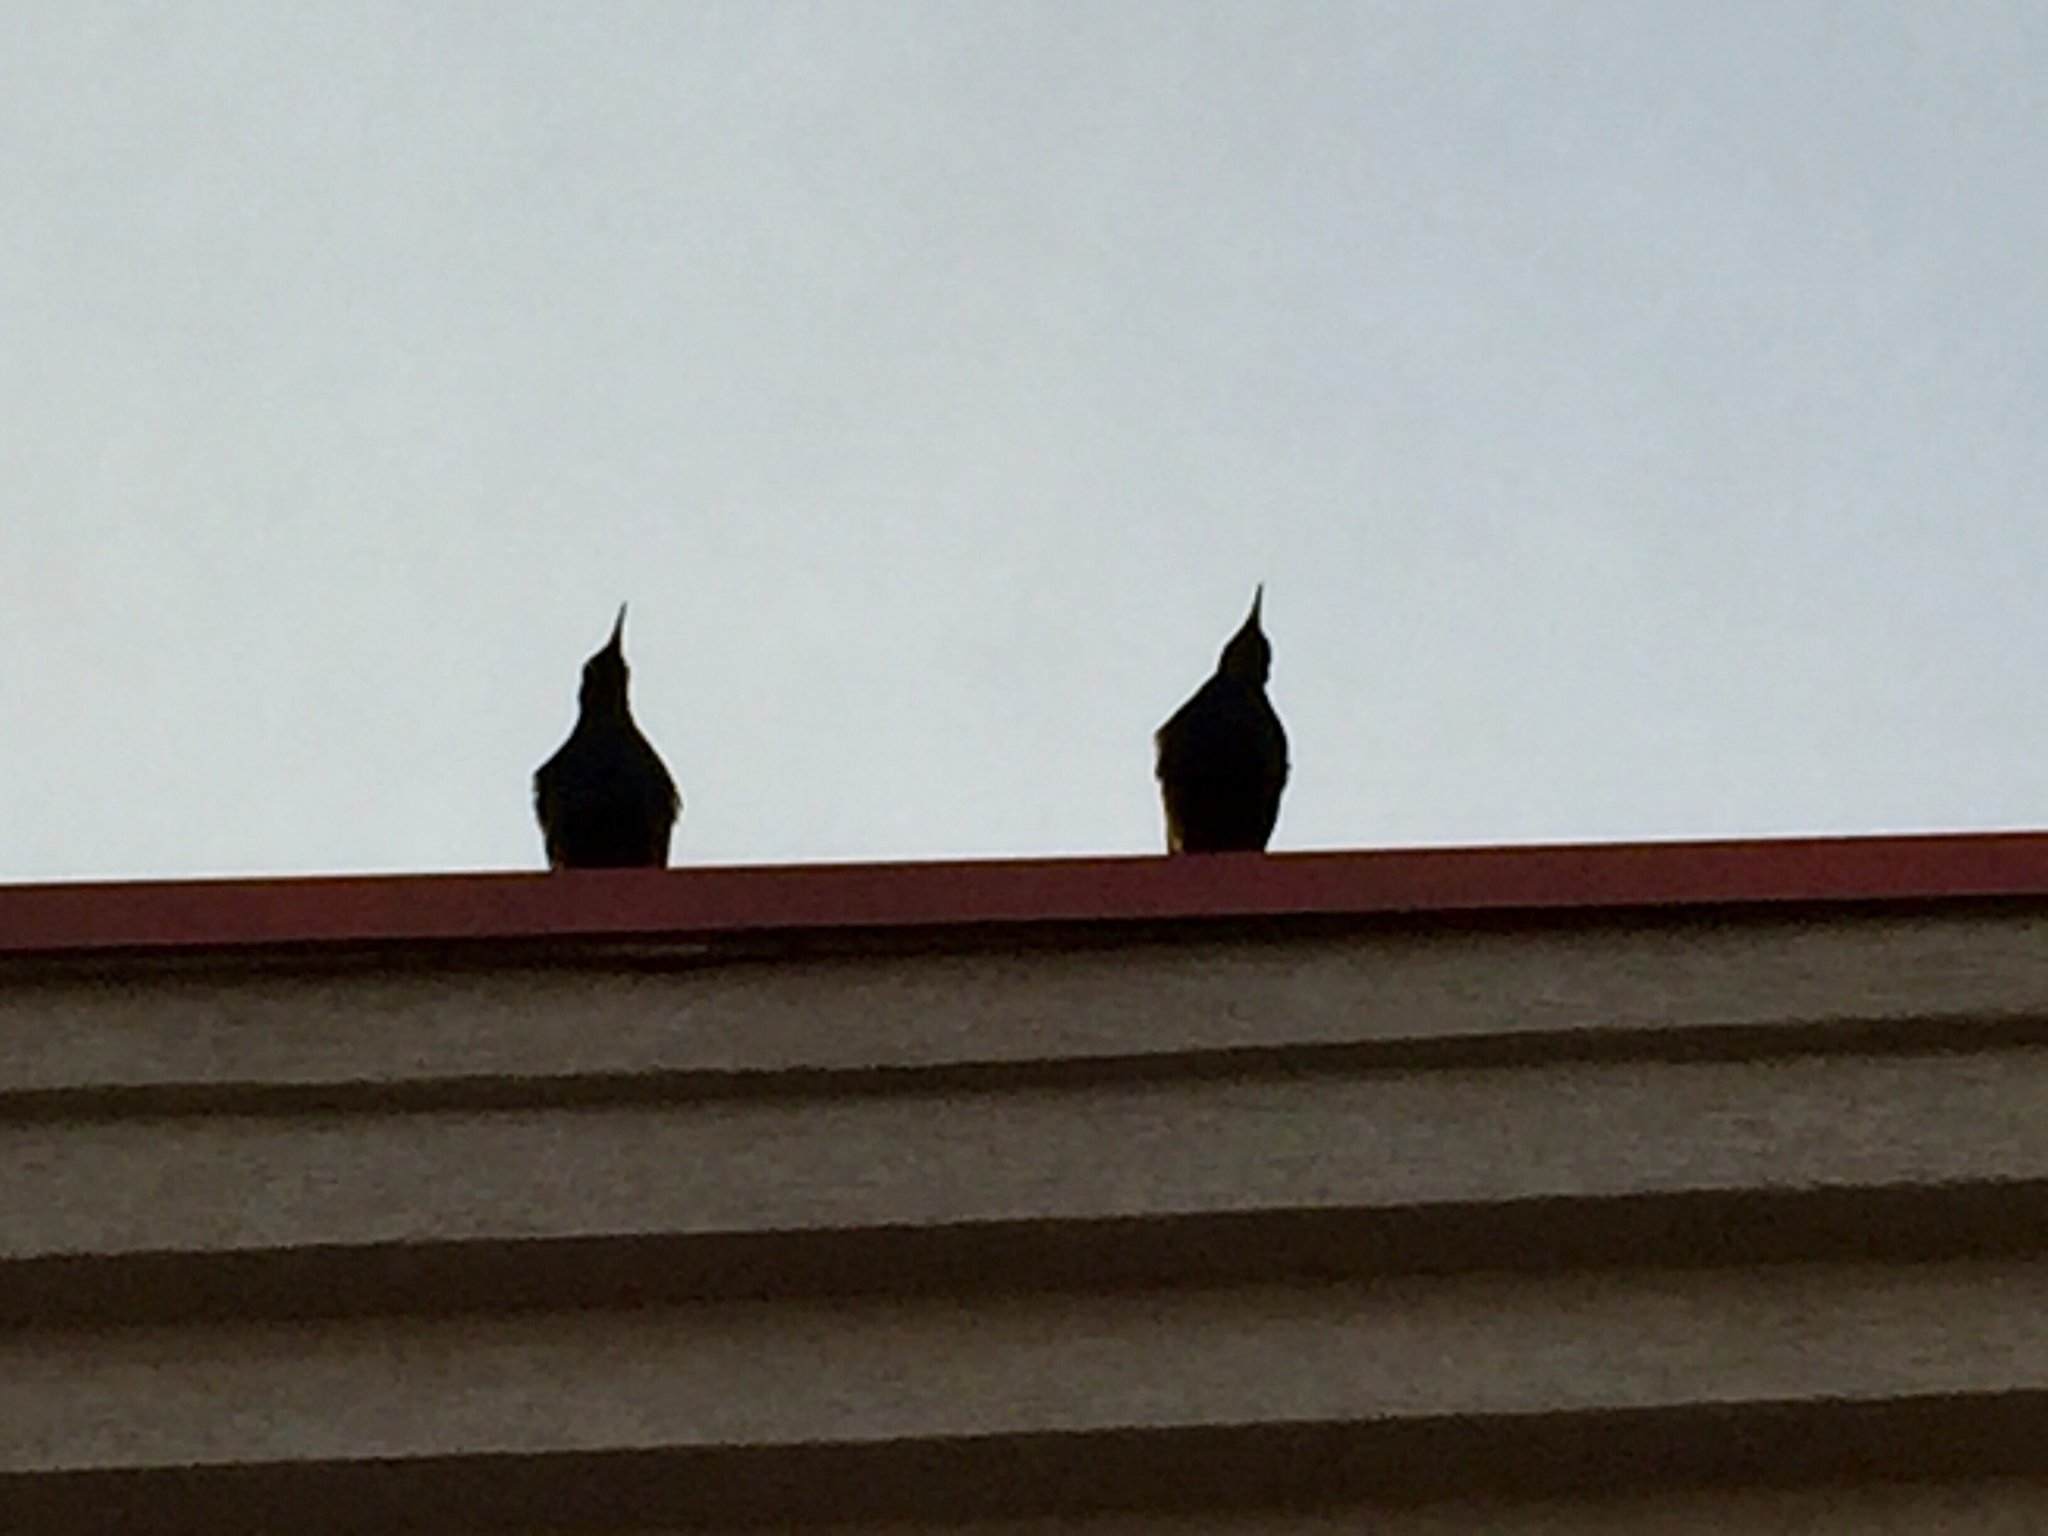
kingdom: Animalia
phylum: Chordata
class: Aves
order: Passeriformes
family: Icteridae
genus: Quiscalus
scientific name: Quiscalus mexicanus
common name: Great-tailed grackle
